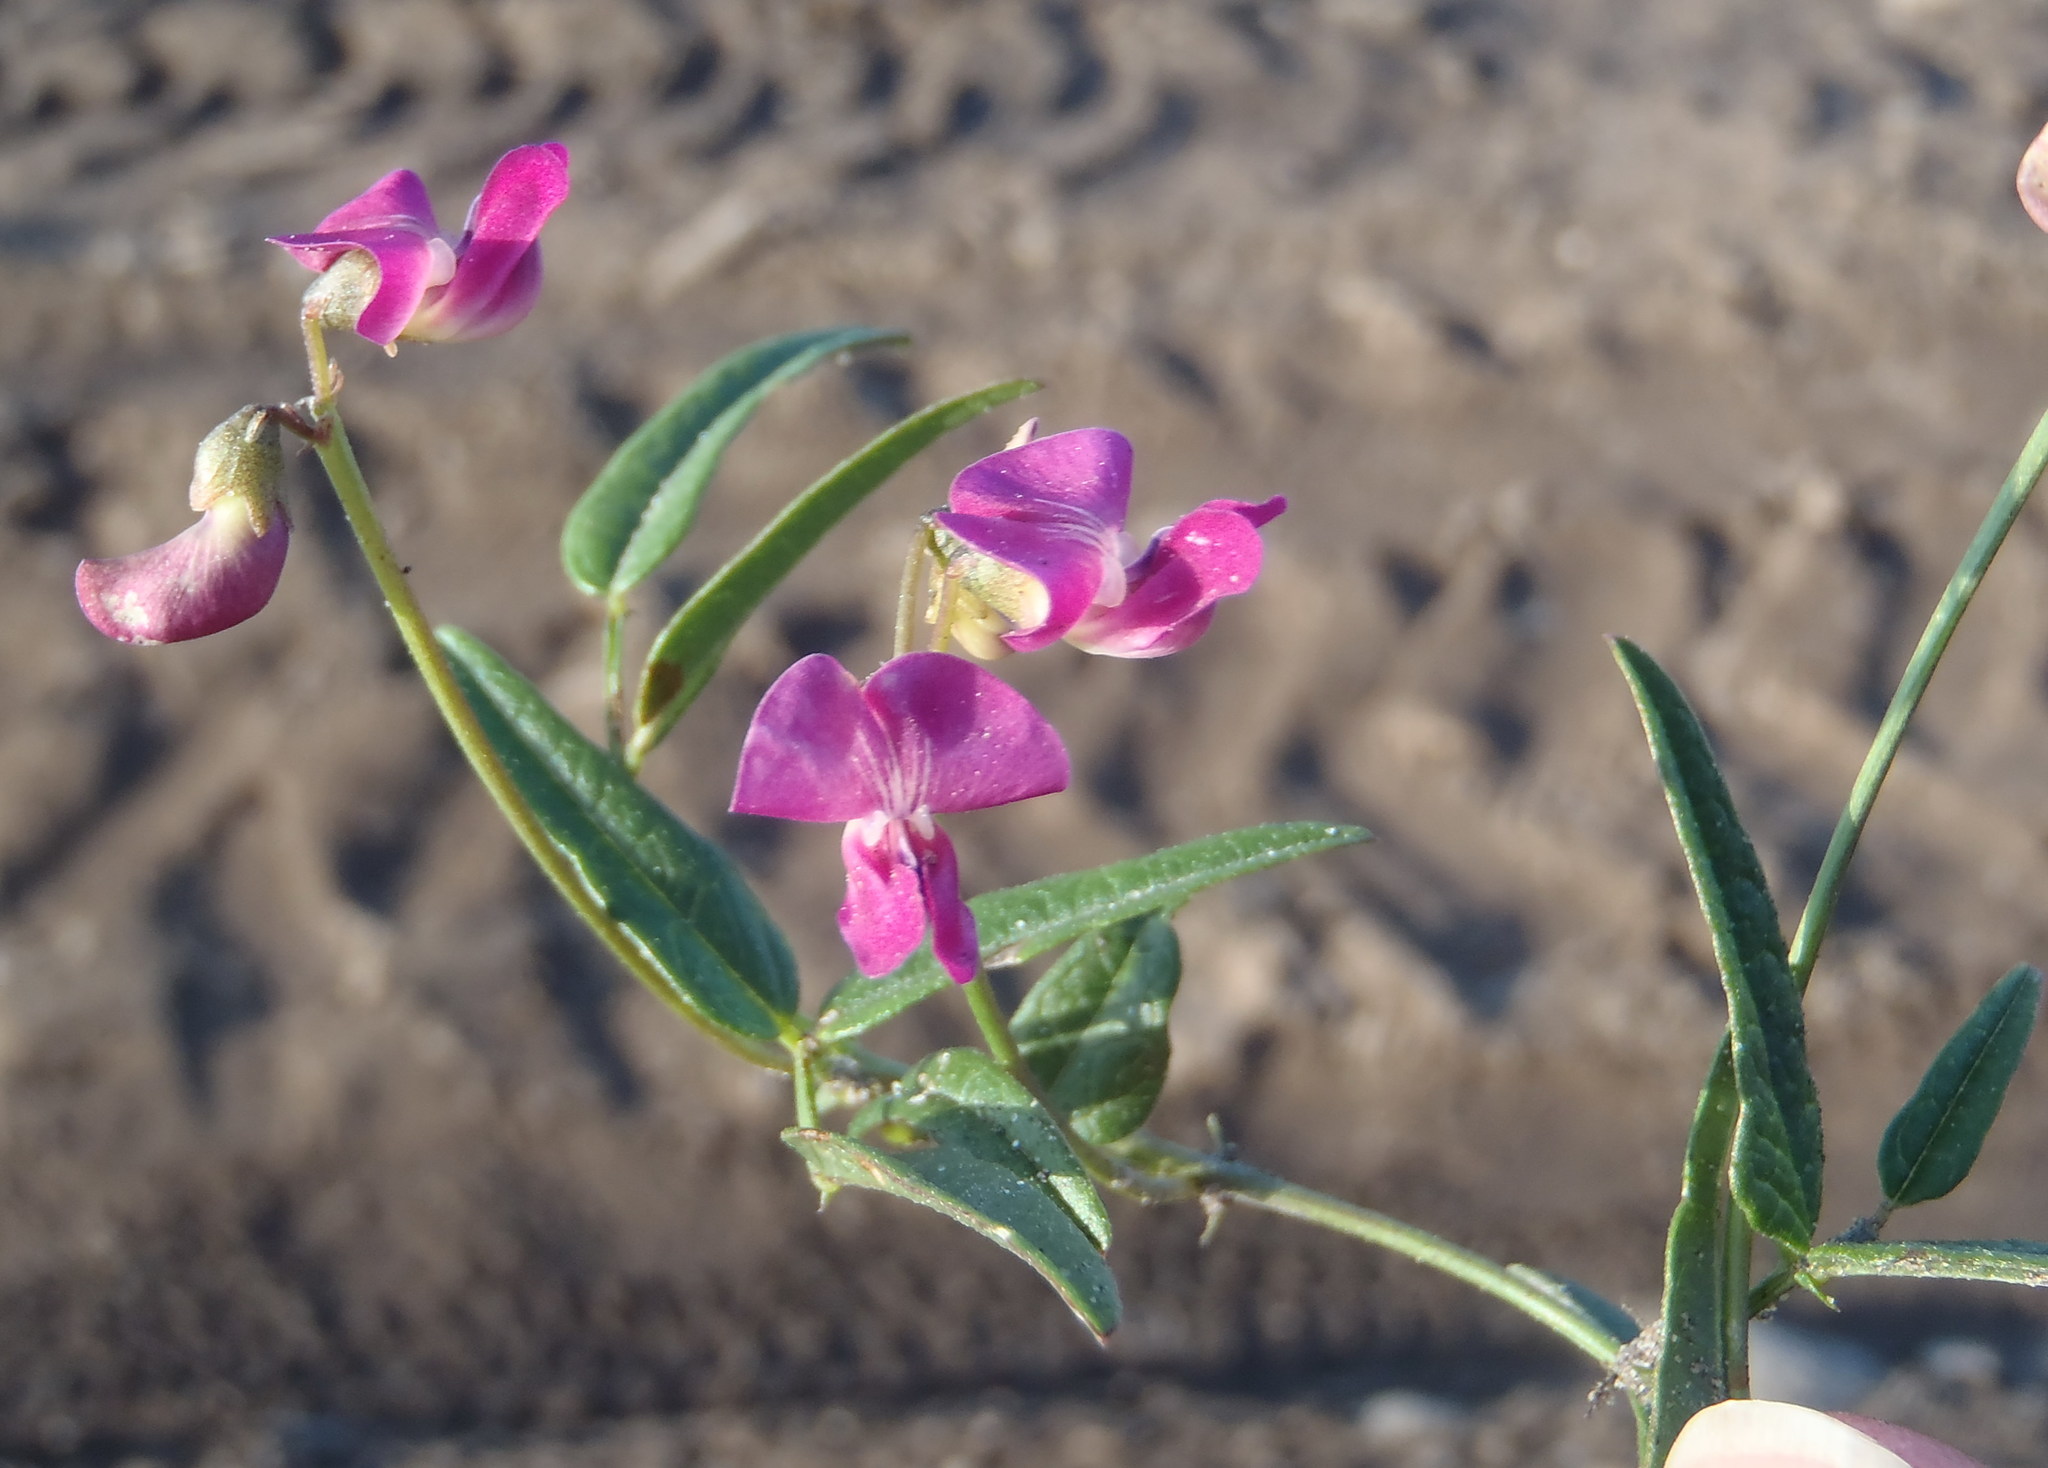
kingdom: Plantae
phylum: Tracheophyta
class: Magnoliopsida
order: Fabales
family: Fabaceae
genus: Dolichos
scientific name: Dolichos hastiformis
